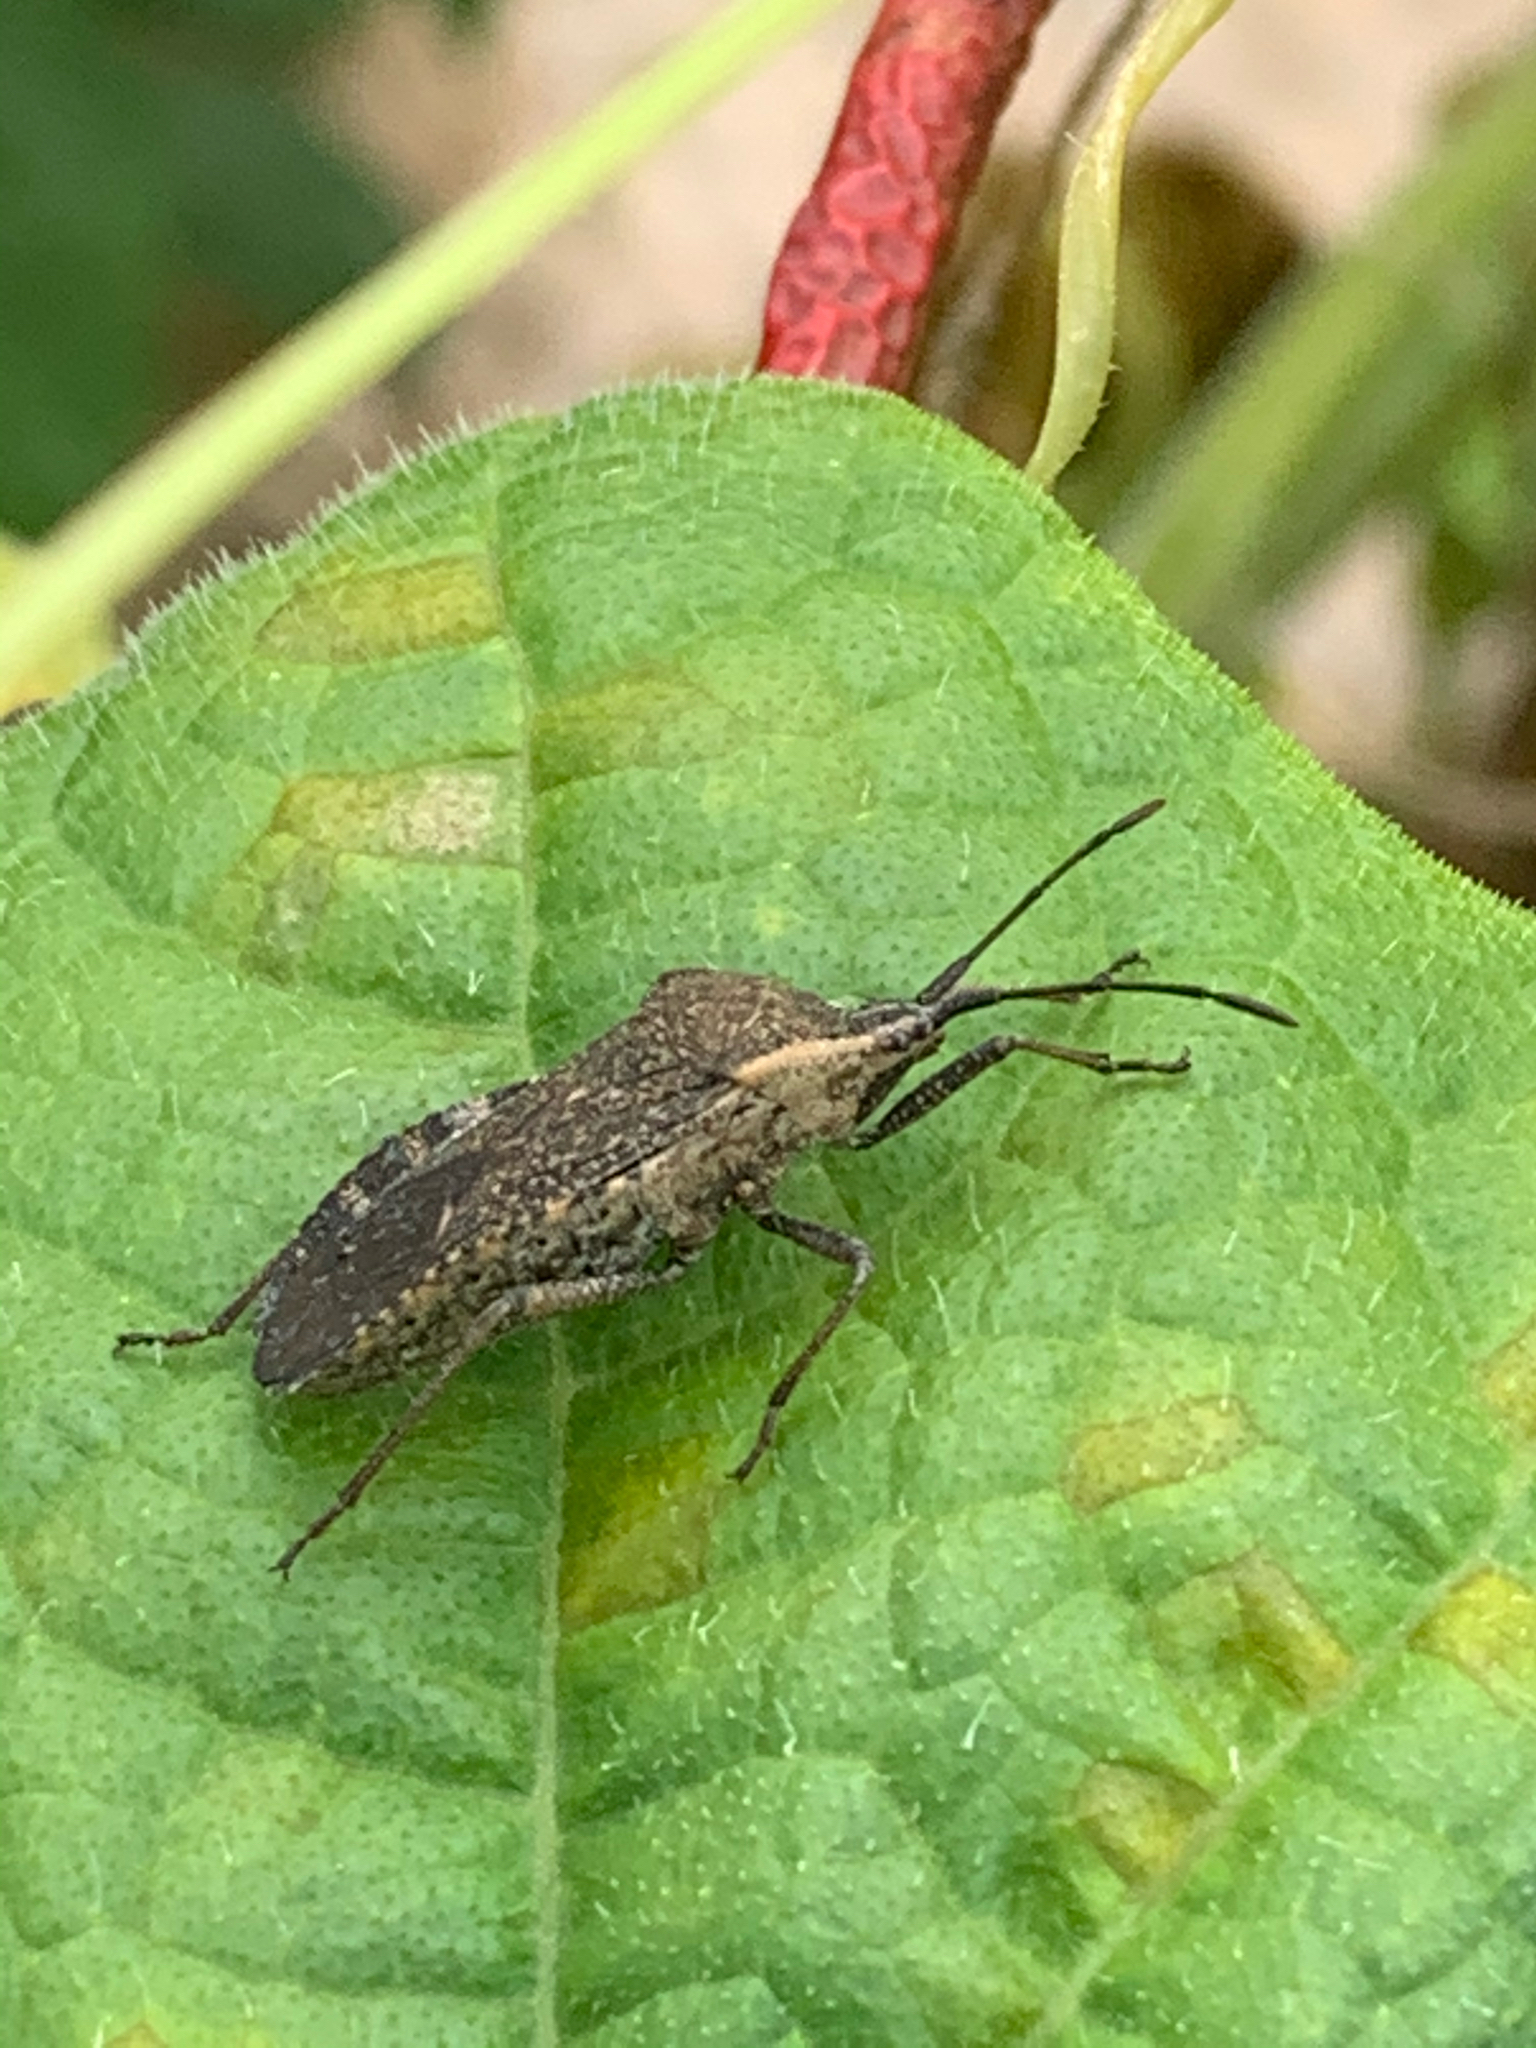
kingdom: Animalia
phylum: Arthropoda
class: Insecta
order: Hemiptera
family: Coreidae
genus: Anasa
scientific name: Anasa tristis
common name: Squash bug
